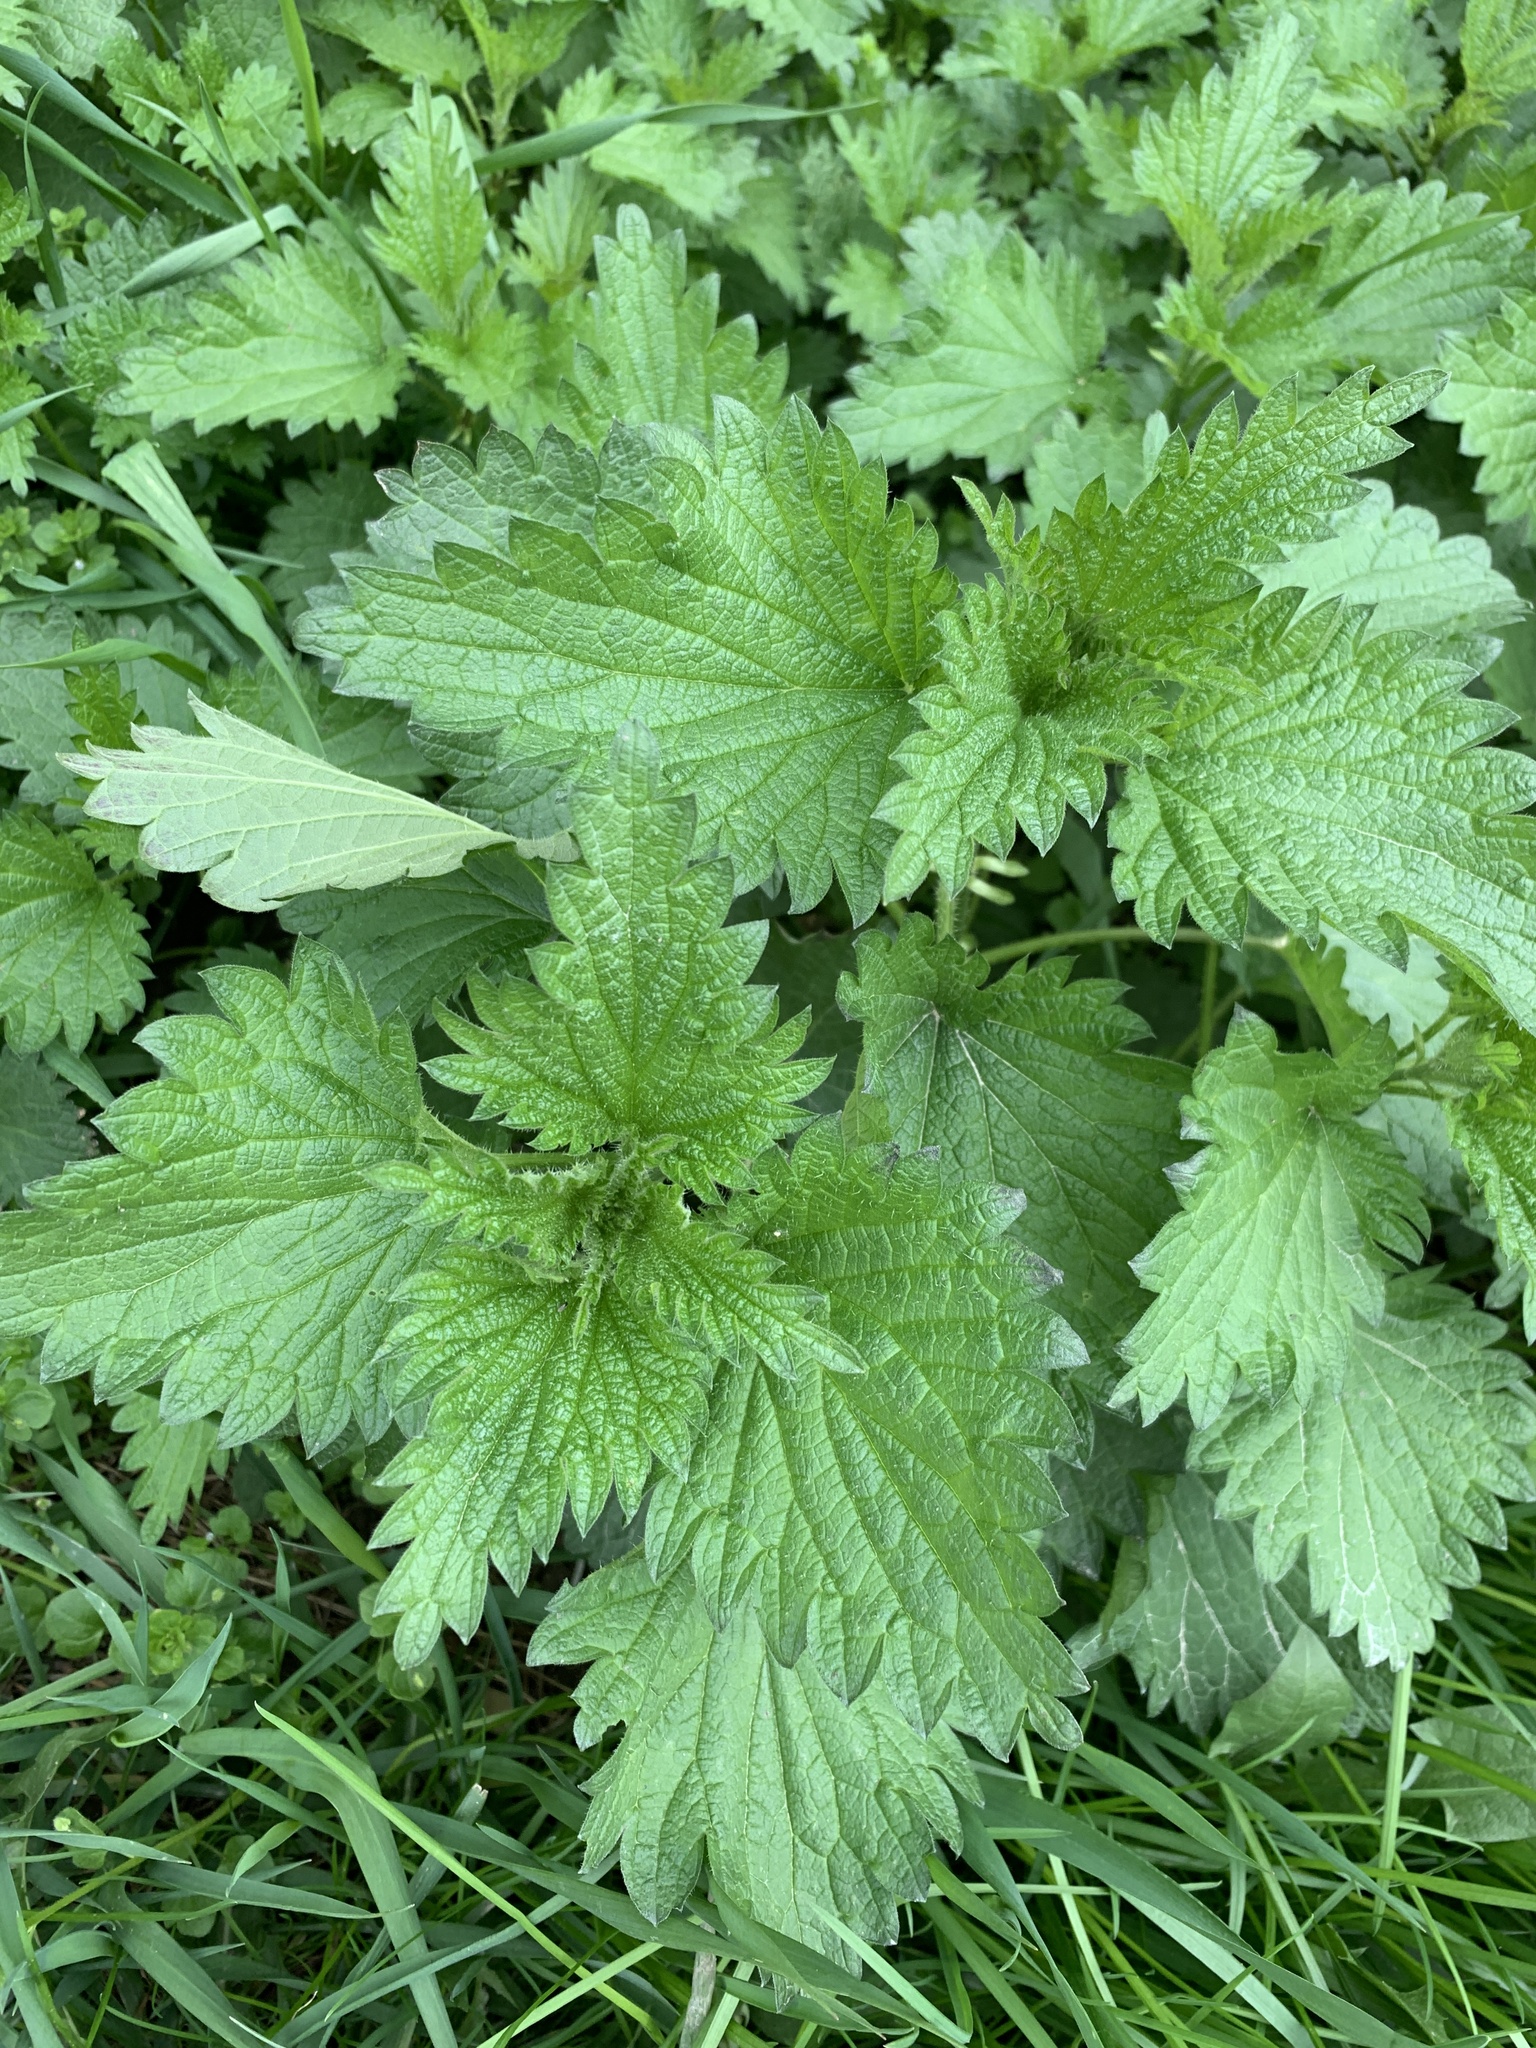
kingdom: Plantae
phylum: Tracheophyta
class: Magnoliopsida
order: Rosales
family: Urticaceae
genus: Urtica
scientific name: Urtica dioica
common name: Common nettle
